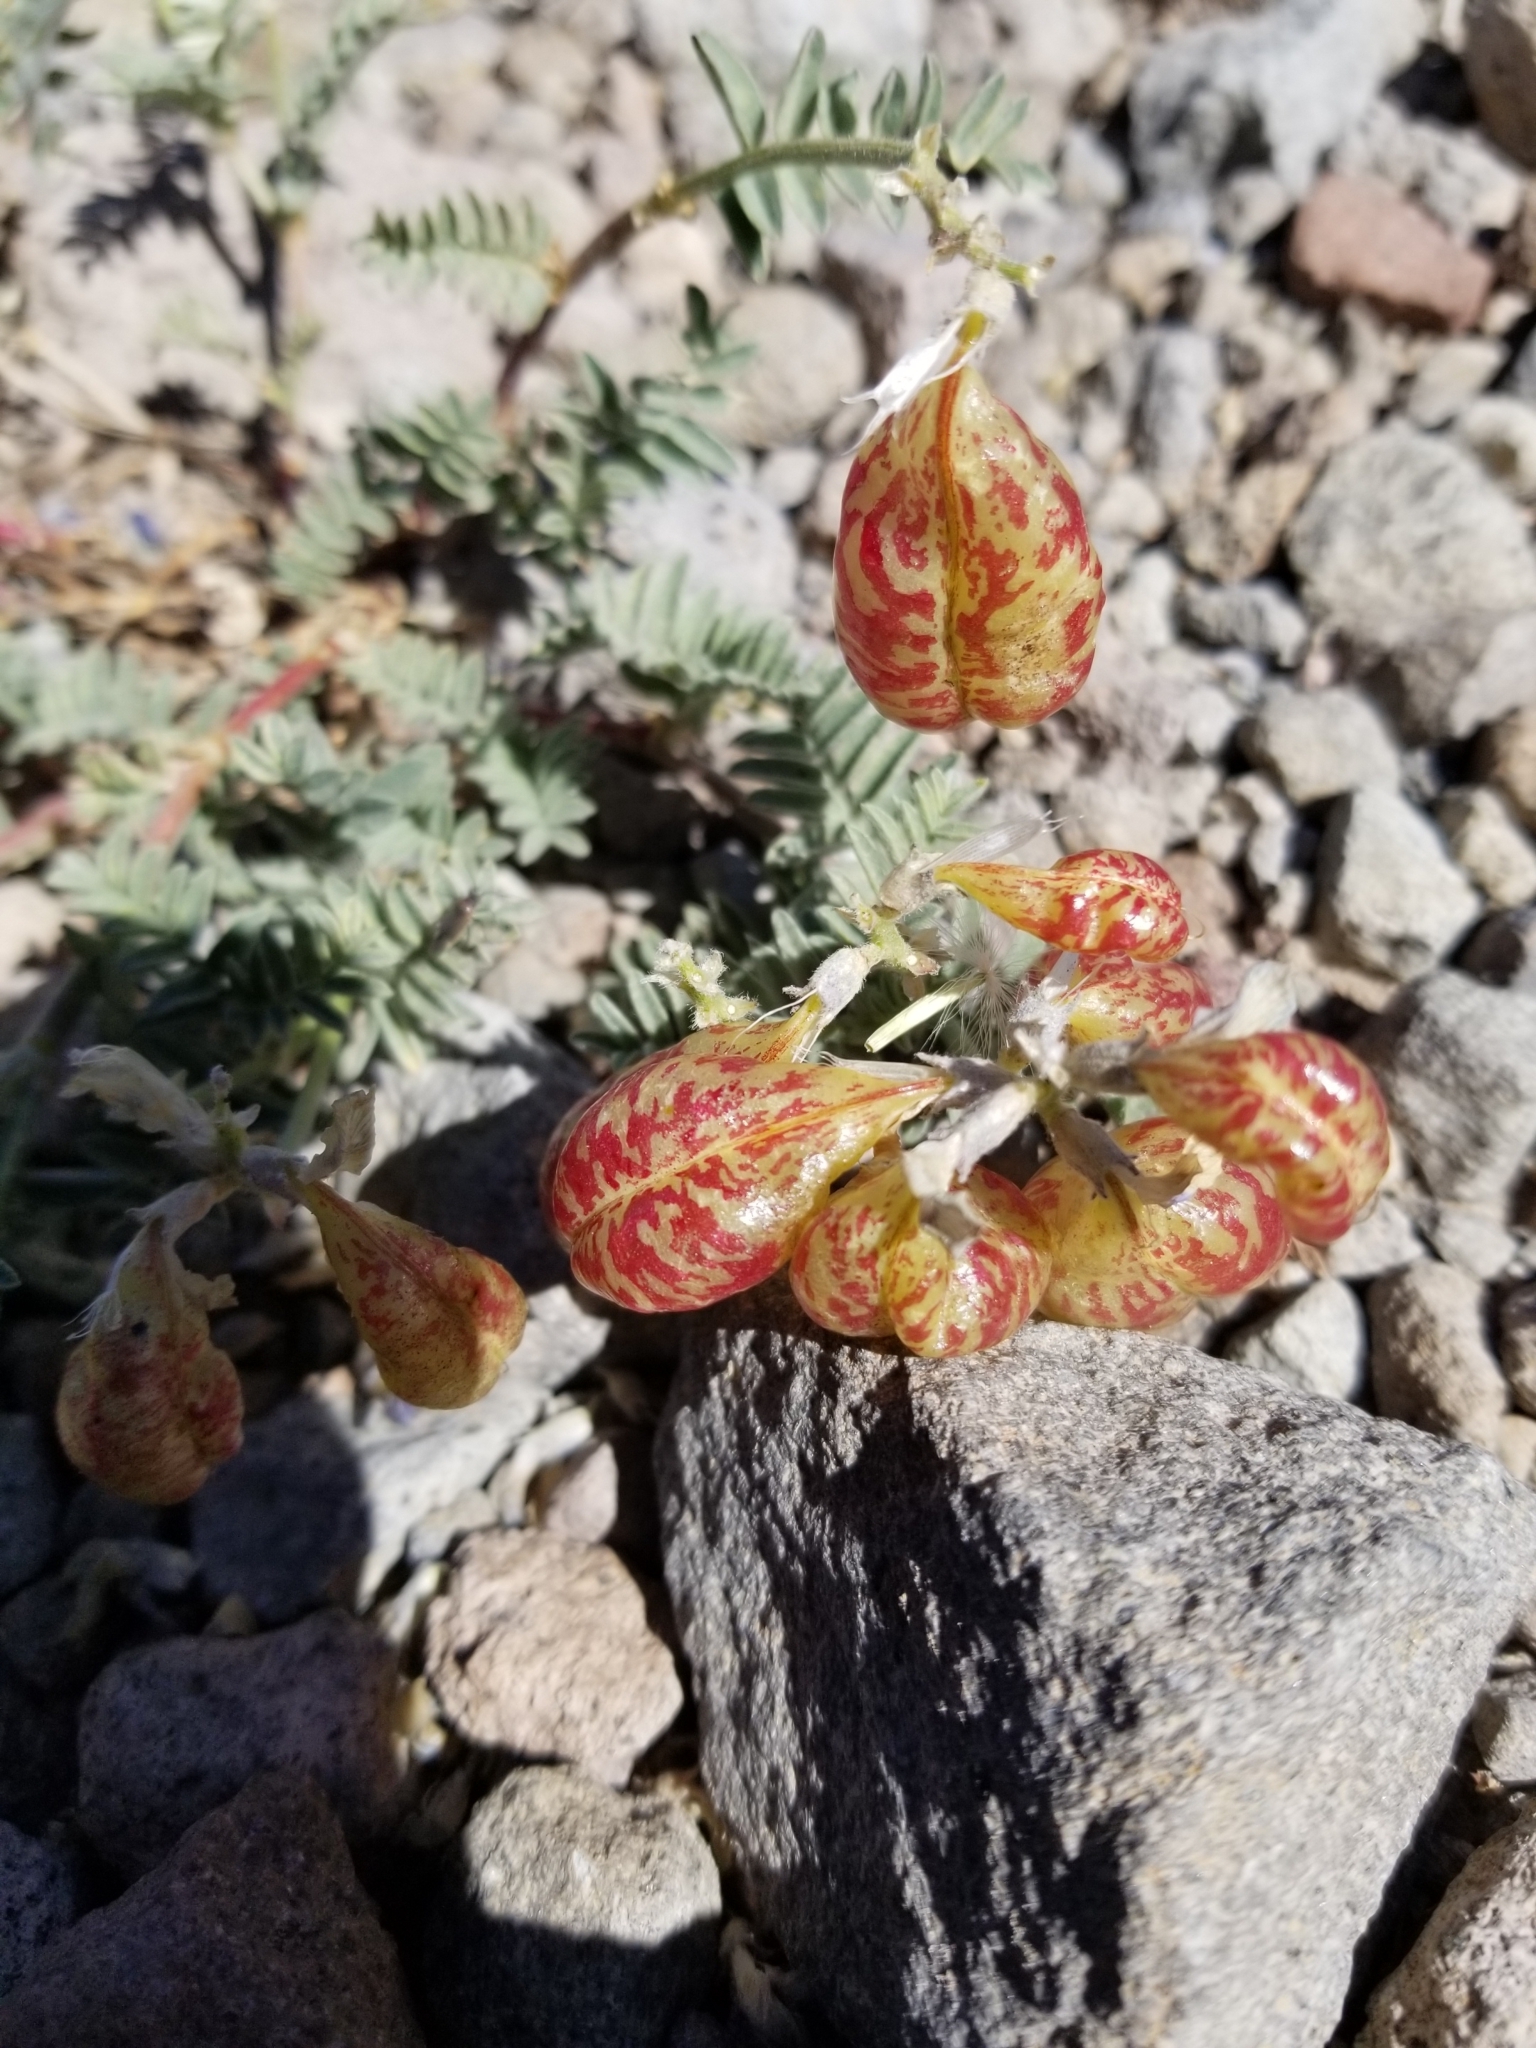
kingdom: Plantae
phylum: Tracheophyta
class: Magnoliopsida
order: Fabales
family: Fabaceae
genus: Astragalus
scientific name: Astragalus whitneyi
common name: Balloonpod milkvetch
